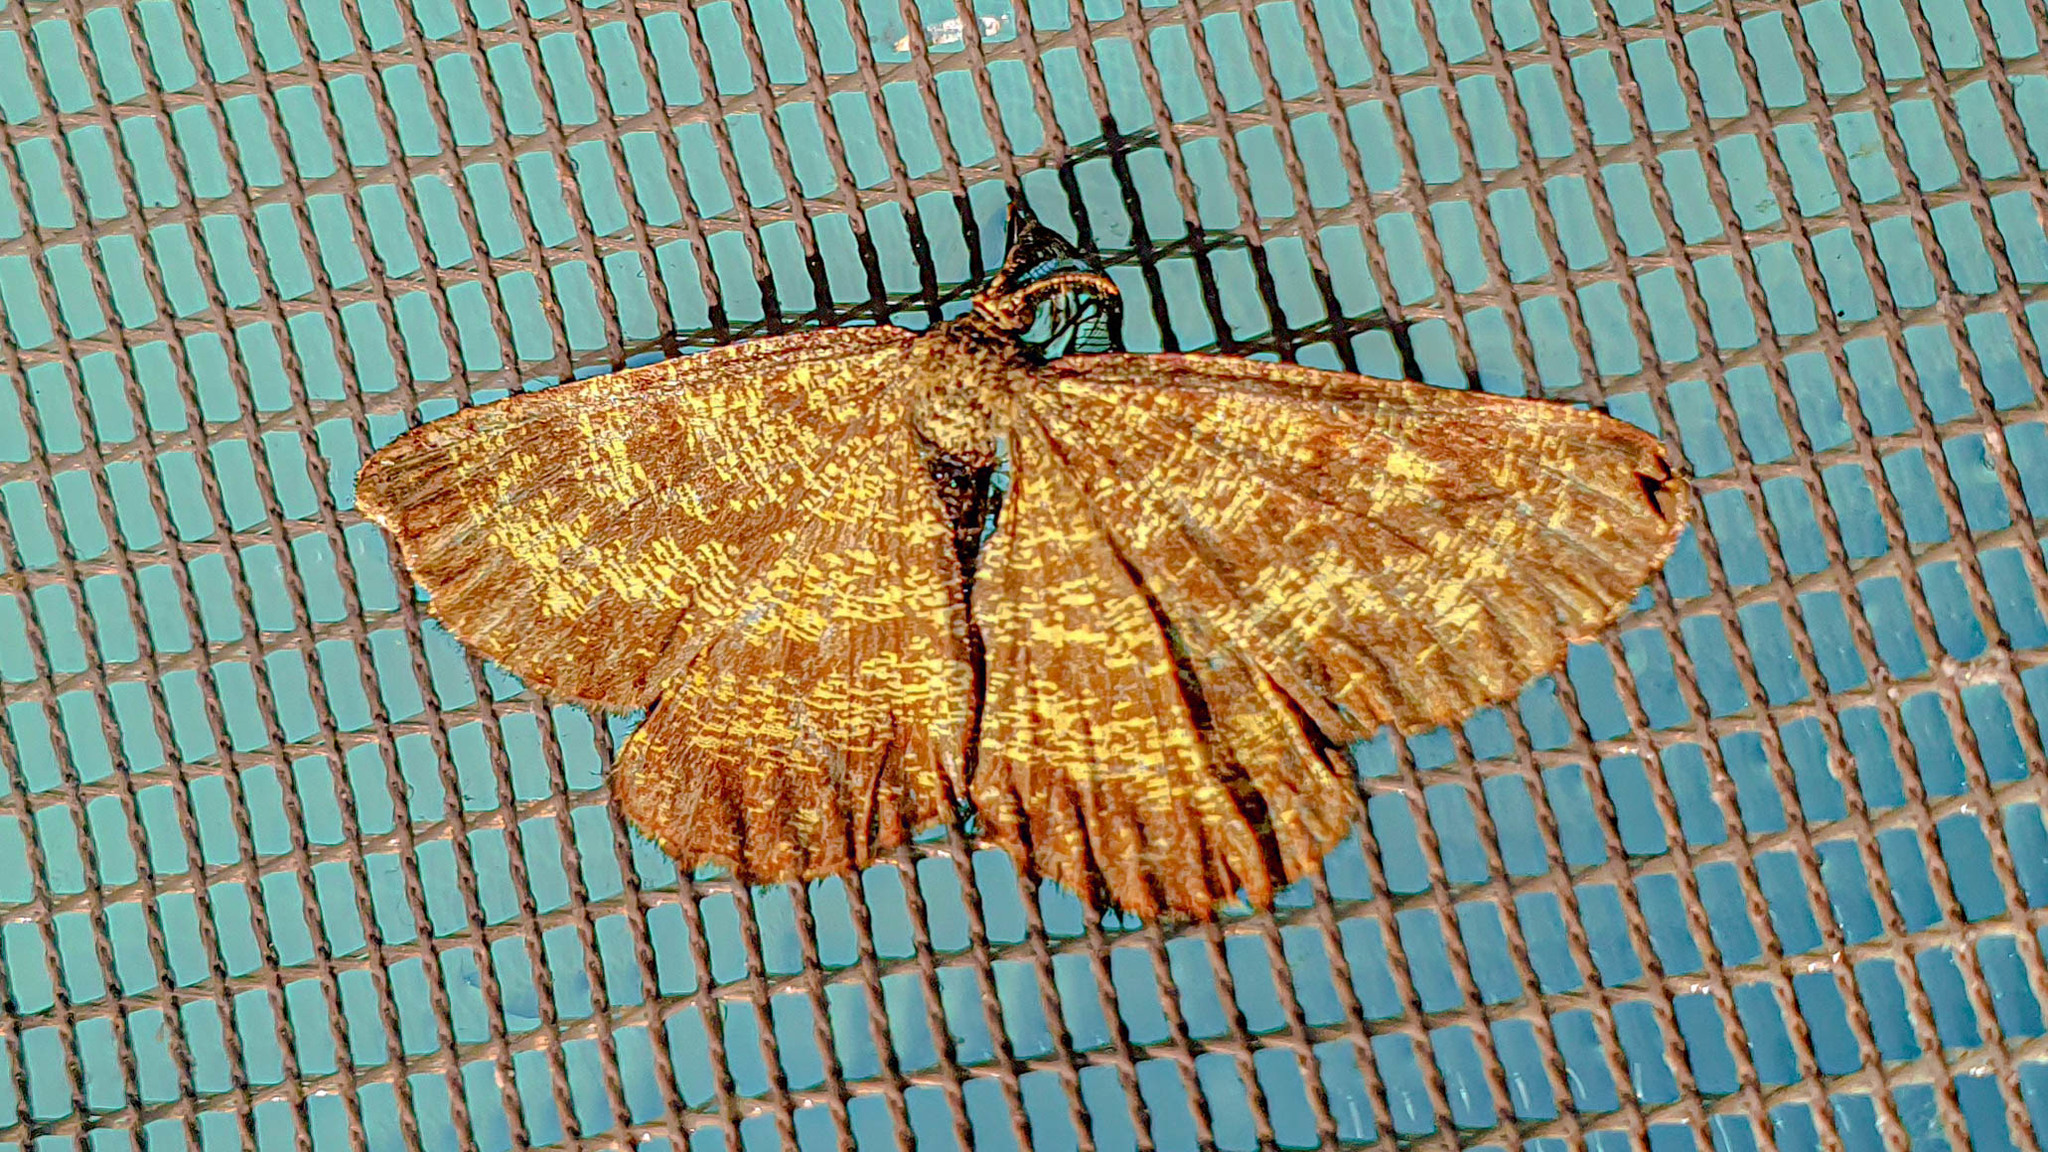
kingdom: Animalia
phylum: Arthropoda
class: Insecta
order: Lepidoptera
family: Geometridae
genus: Ematurga
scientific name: Ematurga atomaria
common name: Common heath
